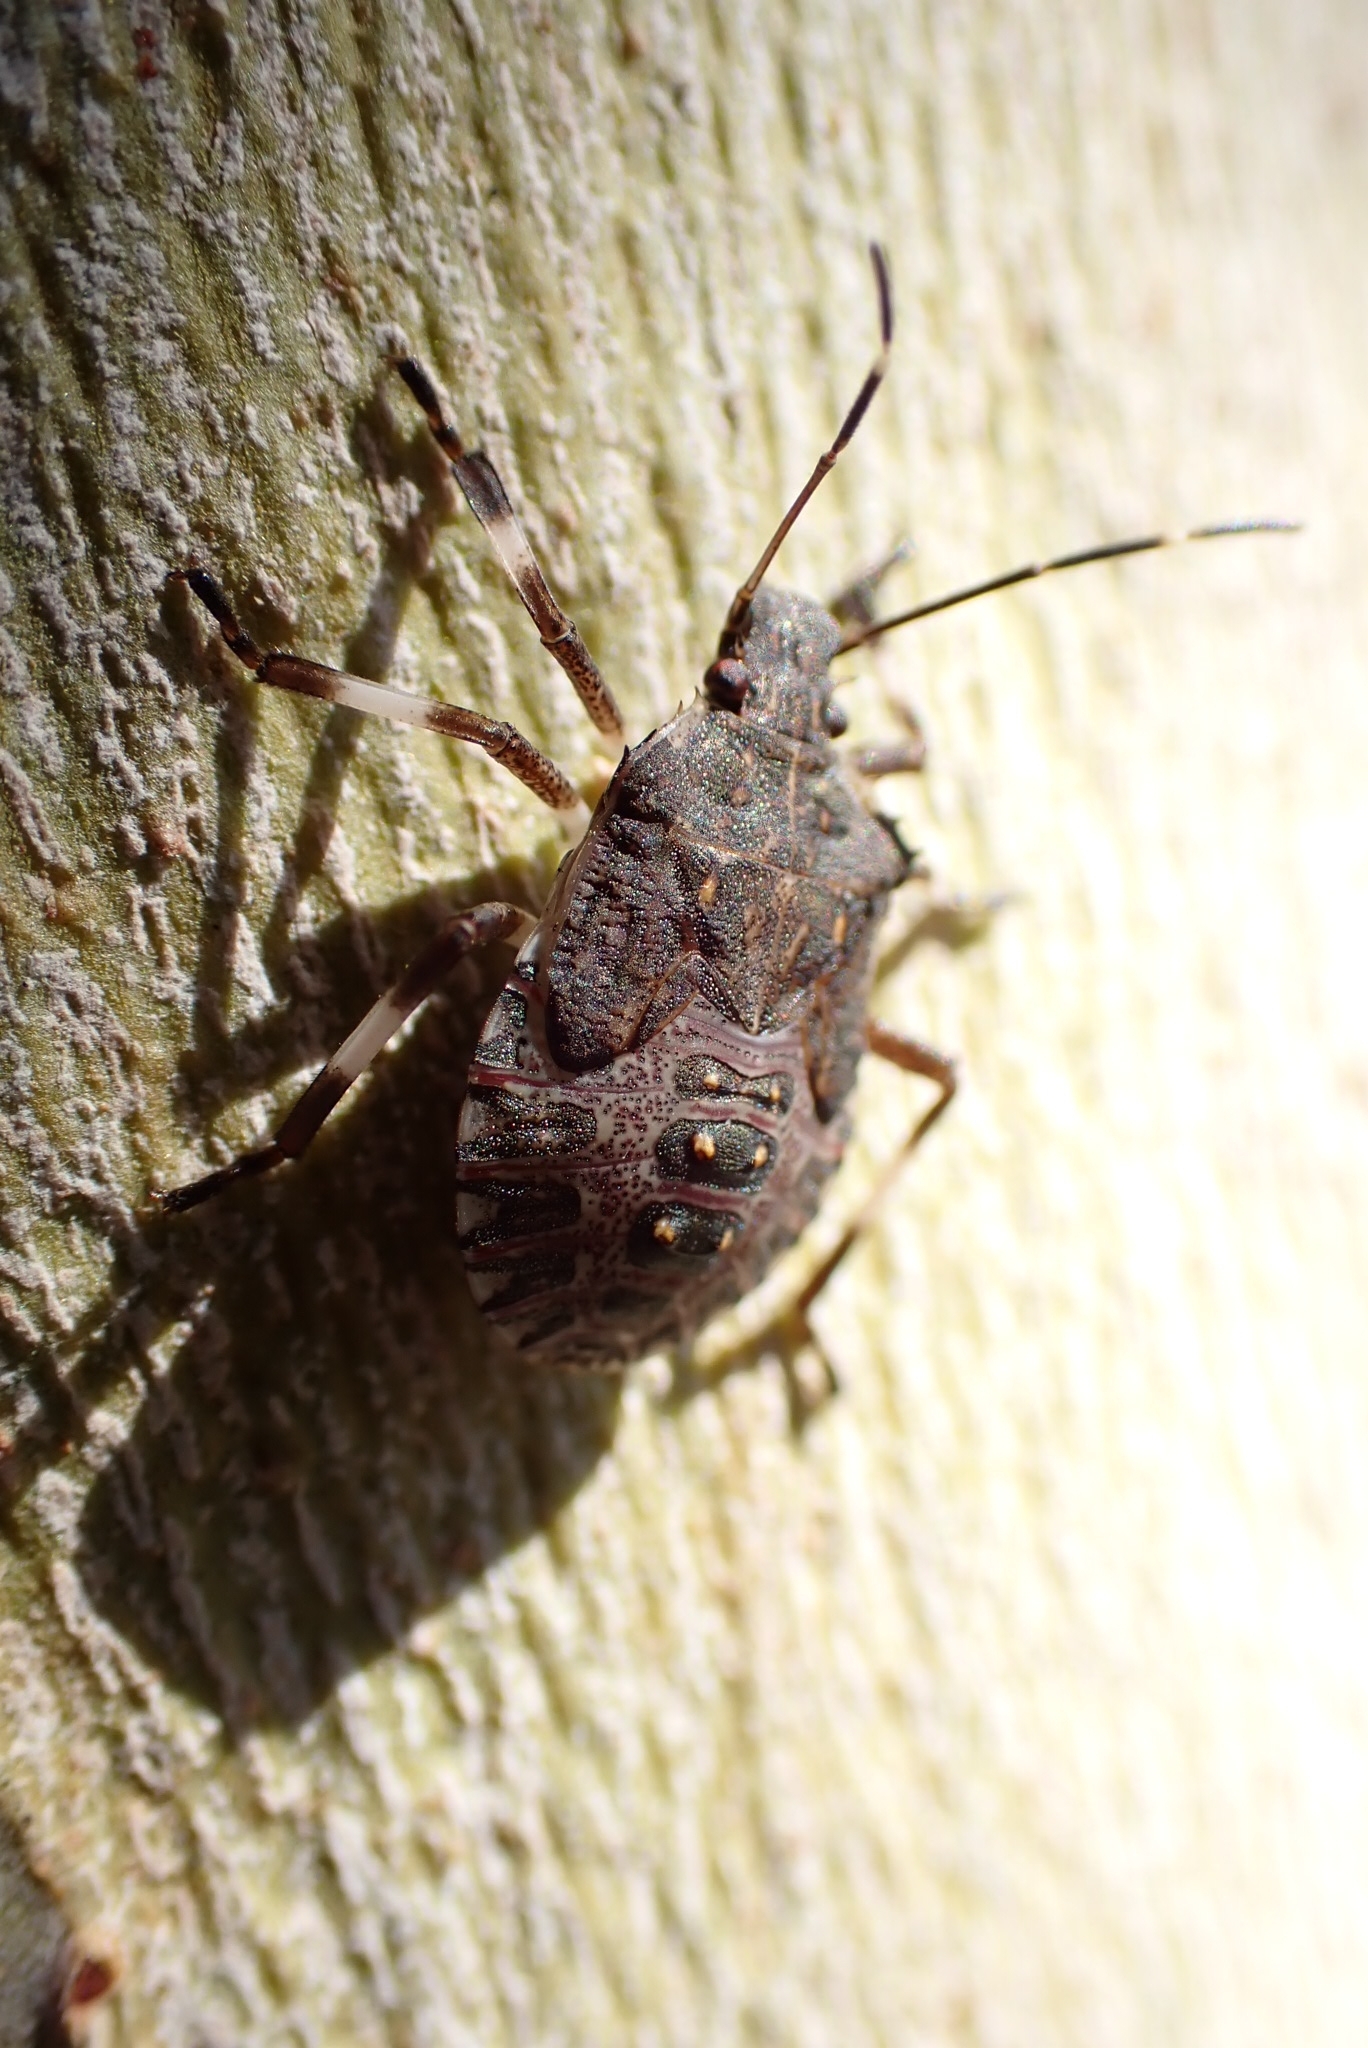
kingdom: Animalia
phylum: Arthropoda
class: Insecta
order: Hemiptera
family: Pentatomidae
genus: Halyomorpha
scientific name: Halyomorpha halys
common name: Brown marmorated stink bug
